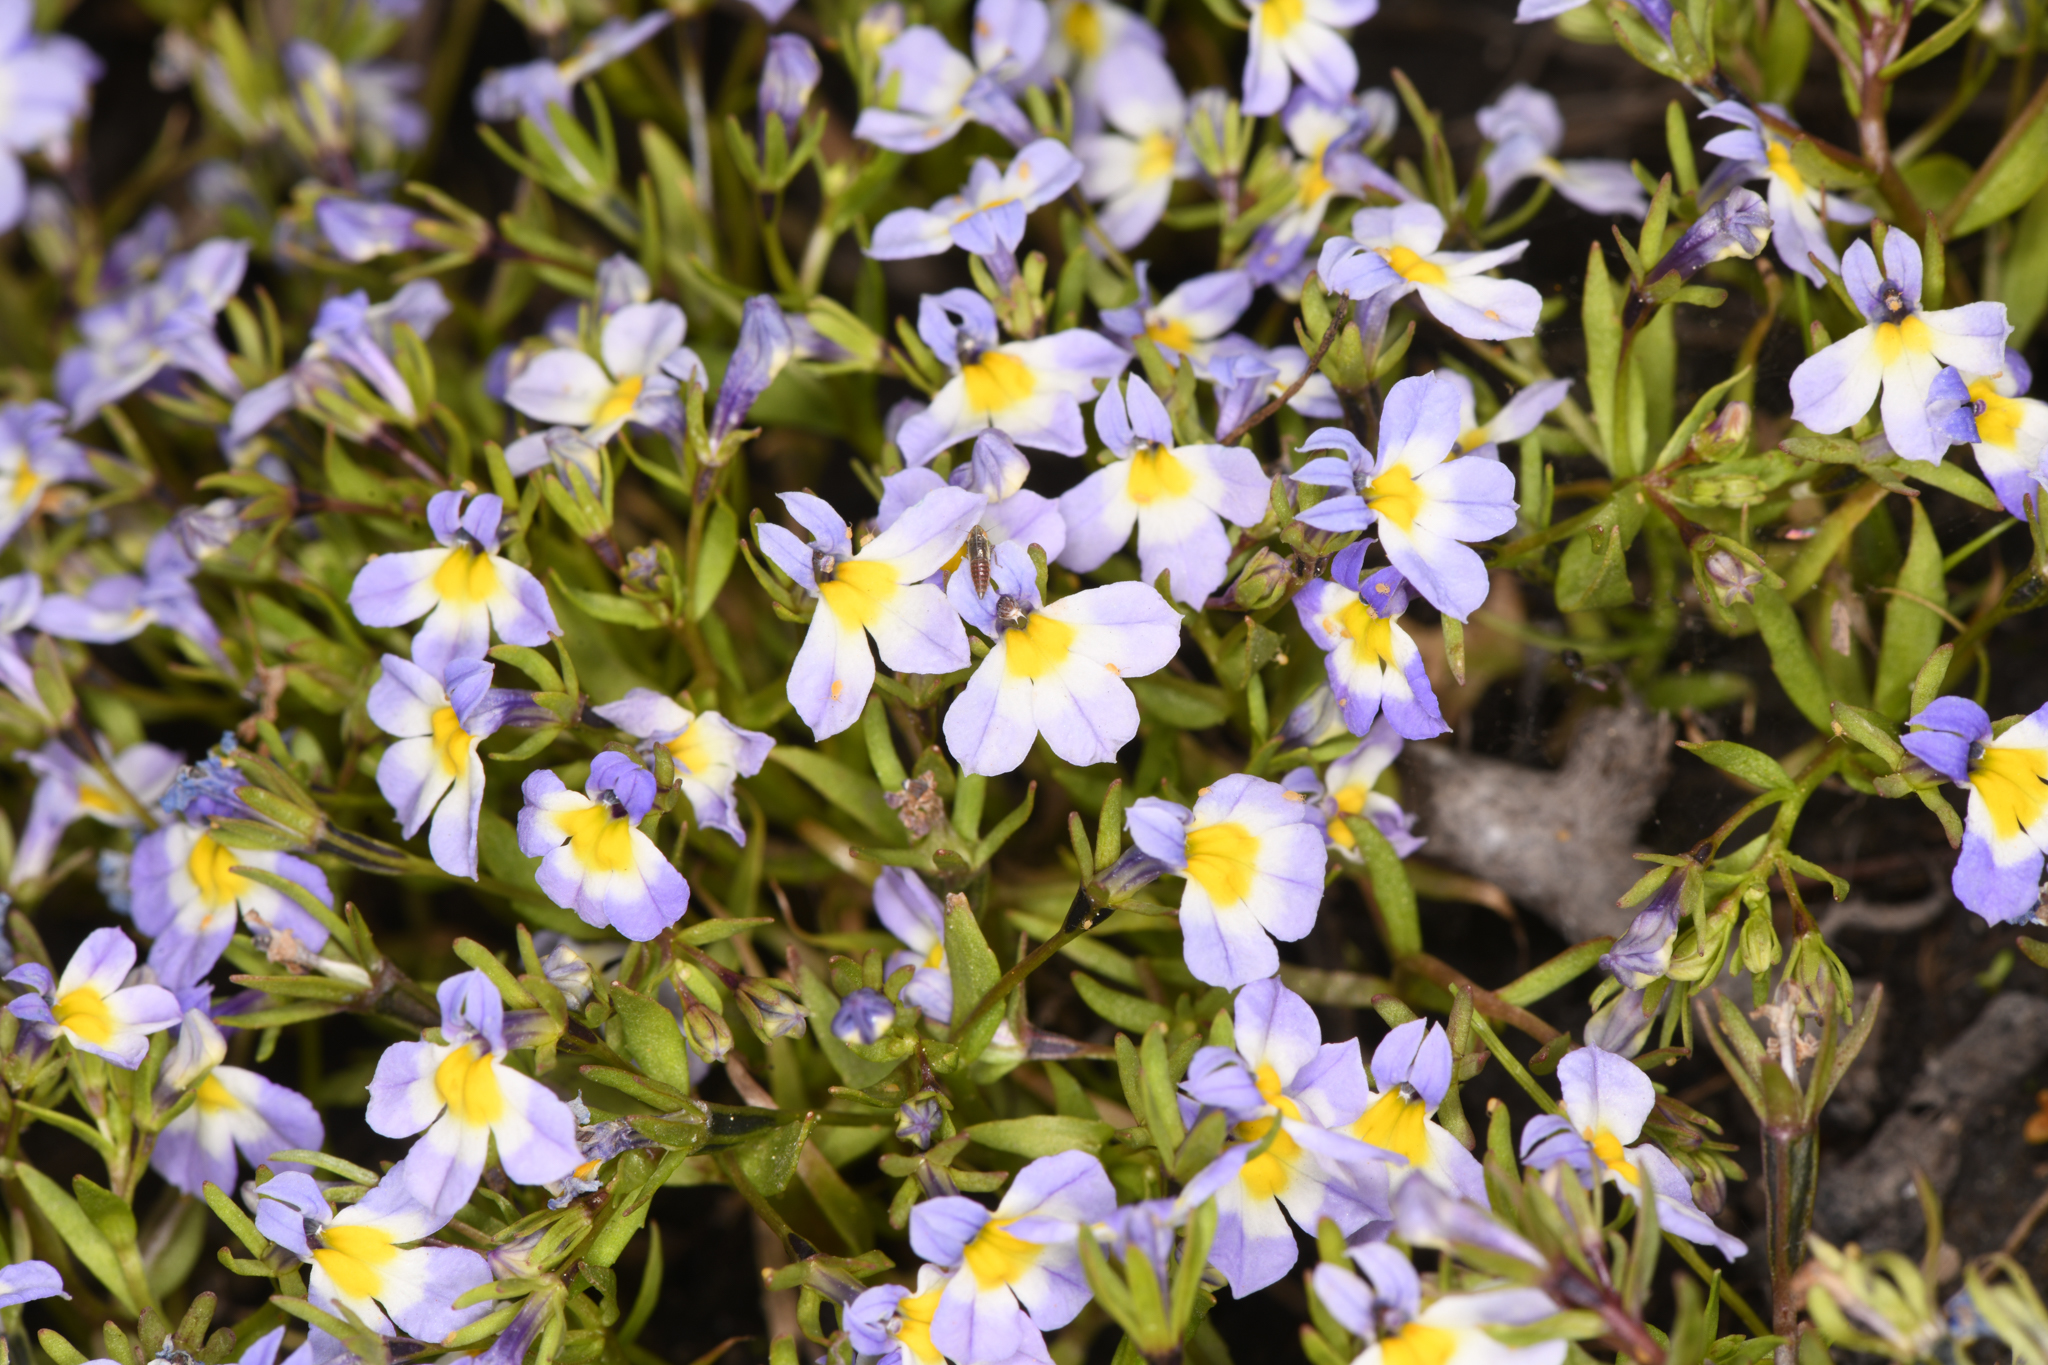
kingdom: Plantae
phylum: Tracheophyta
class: Magnoliopsida
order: Asterales
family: Campanulaceae
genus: Porterella
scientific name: Porterella carnosula
